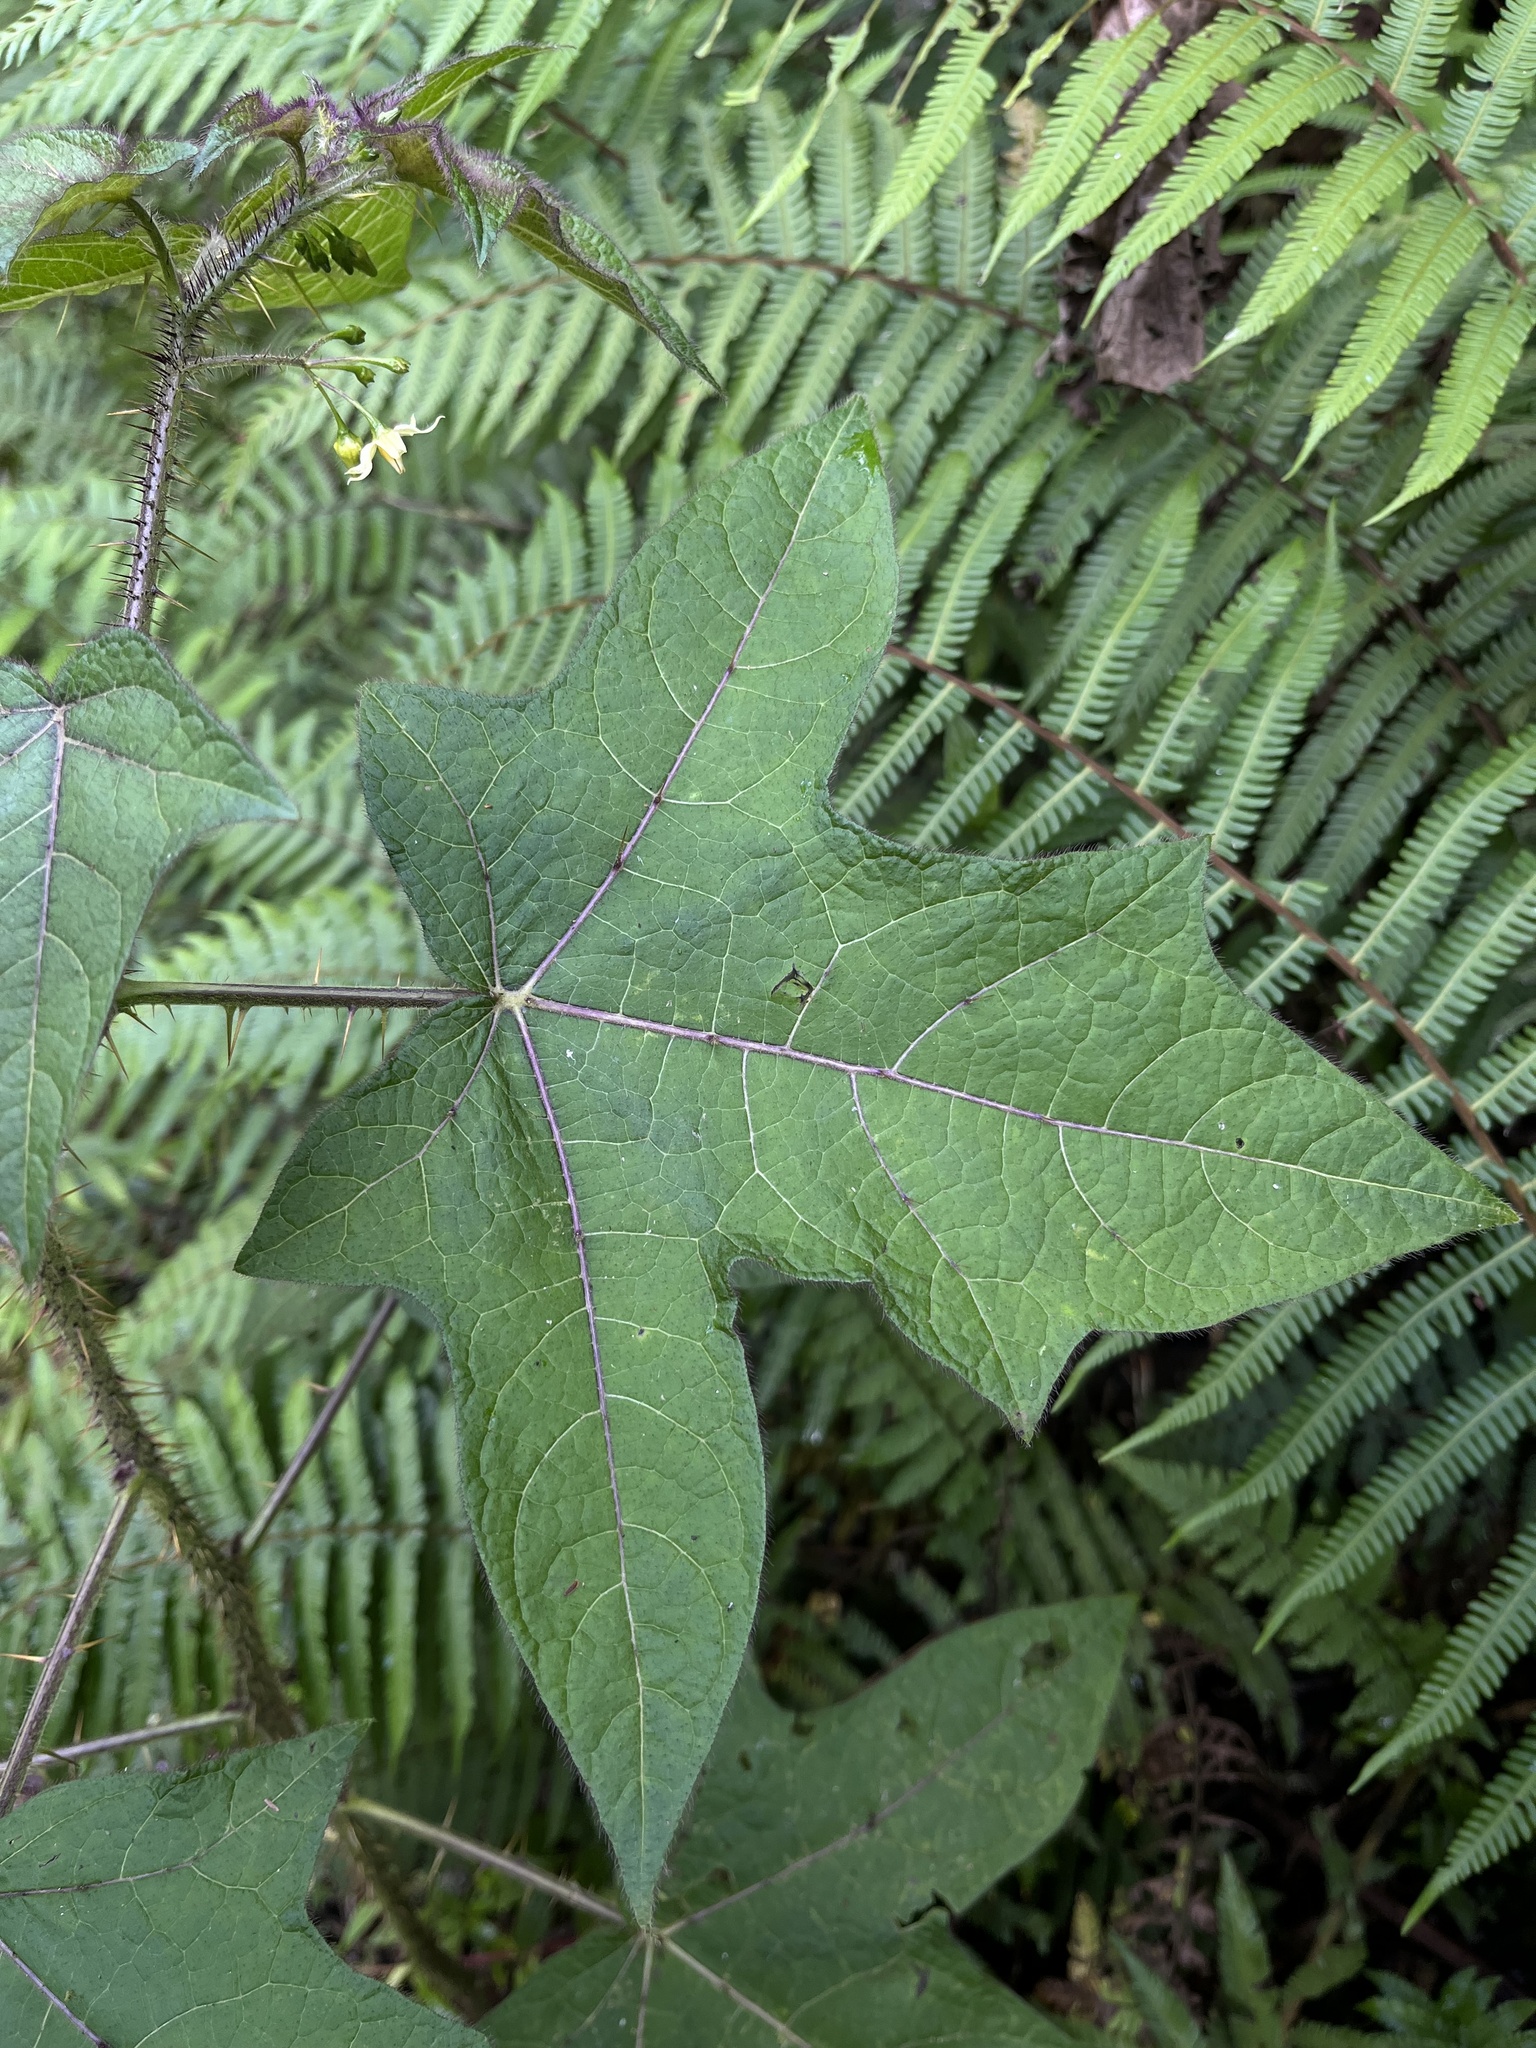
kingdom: Plantae
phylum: Tracheophyta
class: Magnoliopsida
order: Solanales
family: Solanaceae
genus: Solanum
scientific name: Solanum acerifolium
